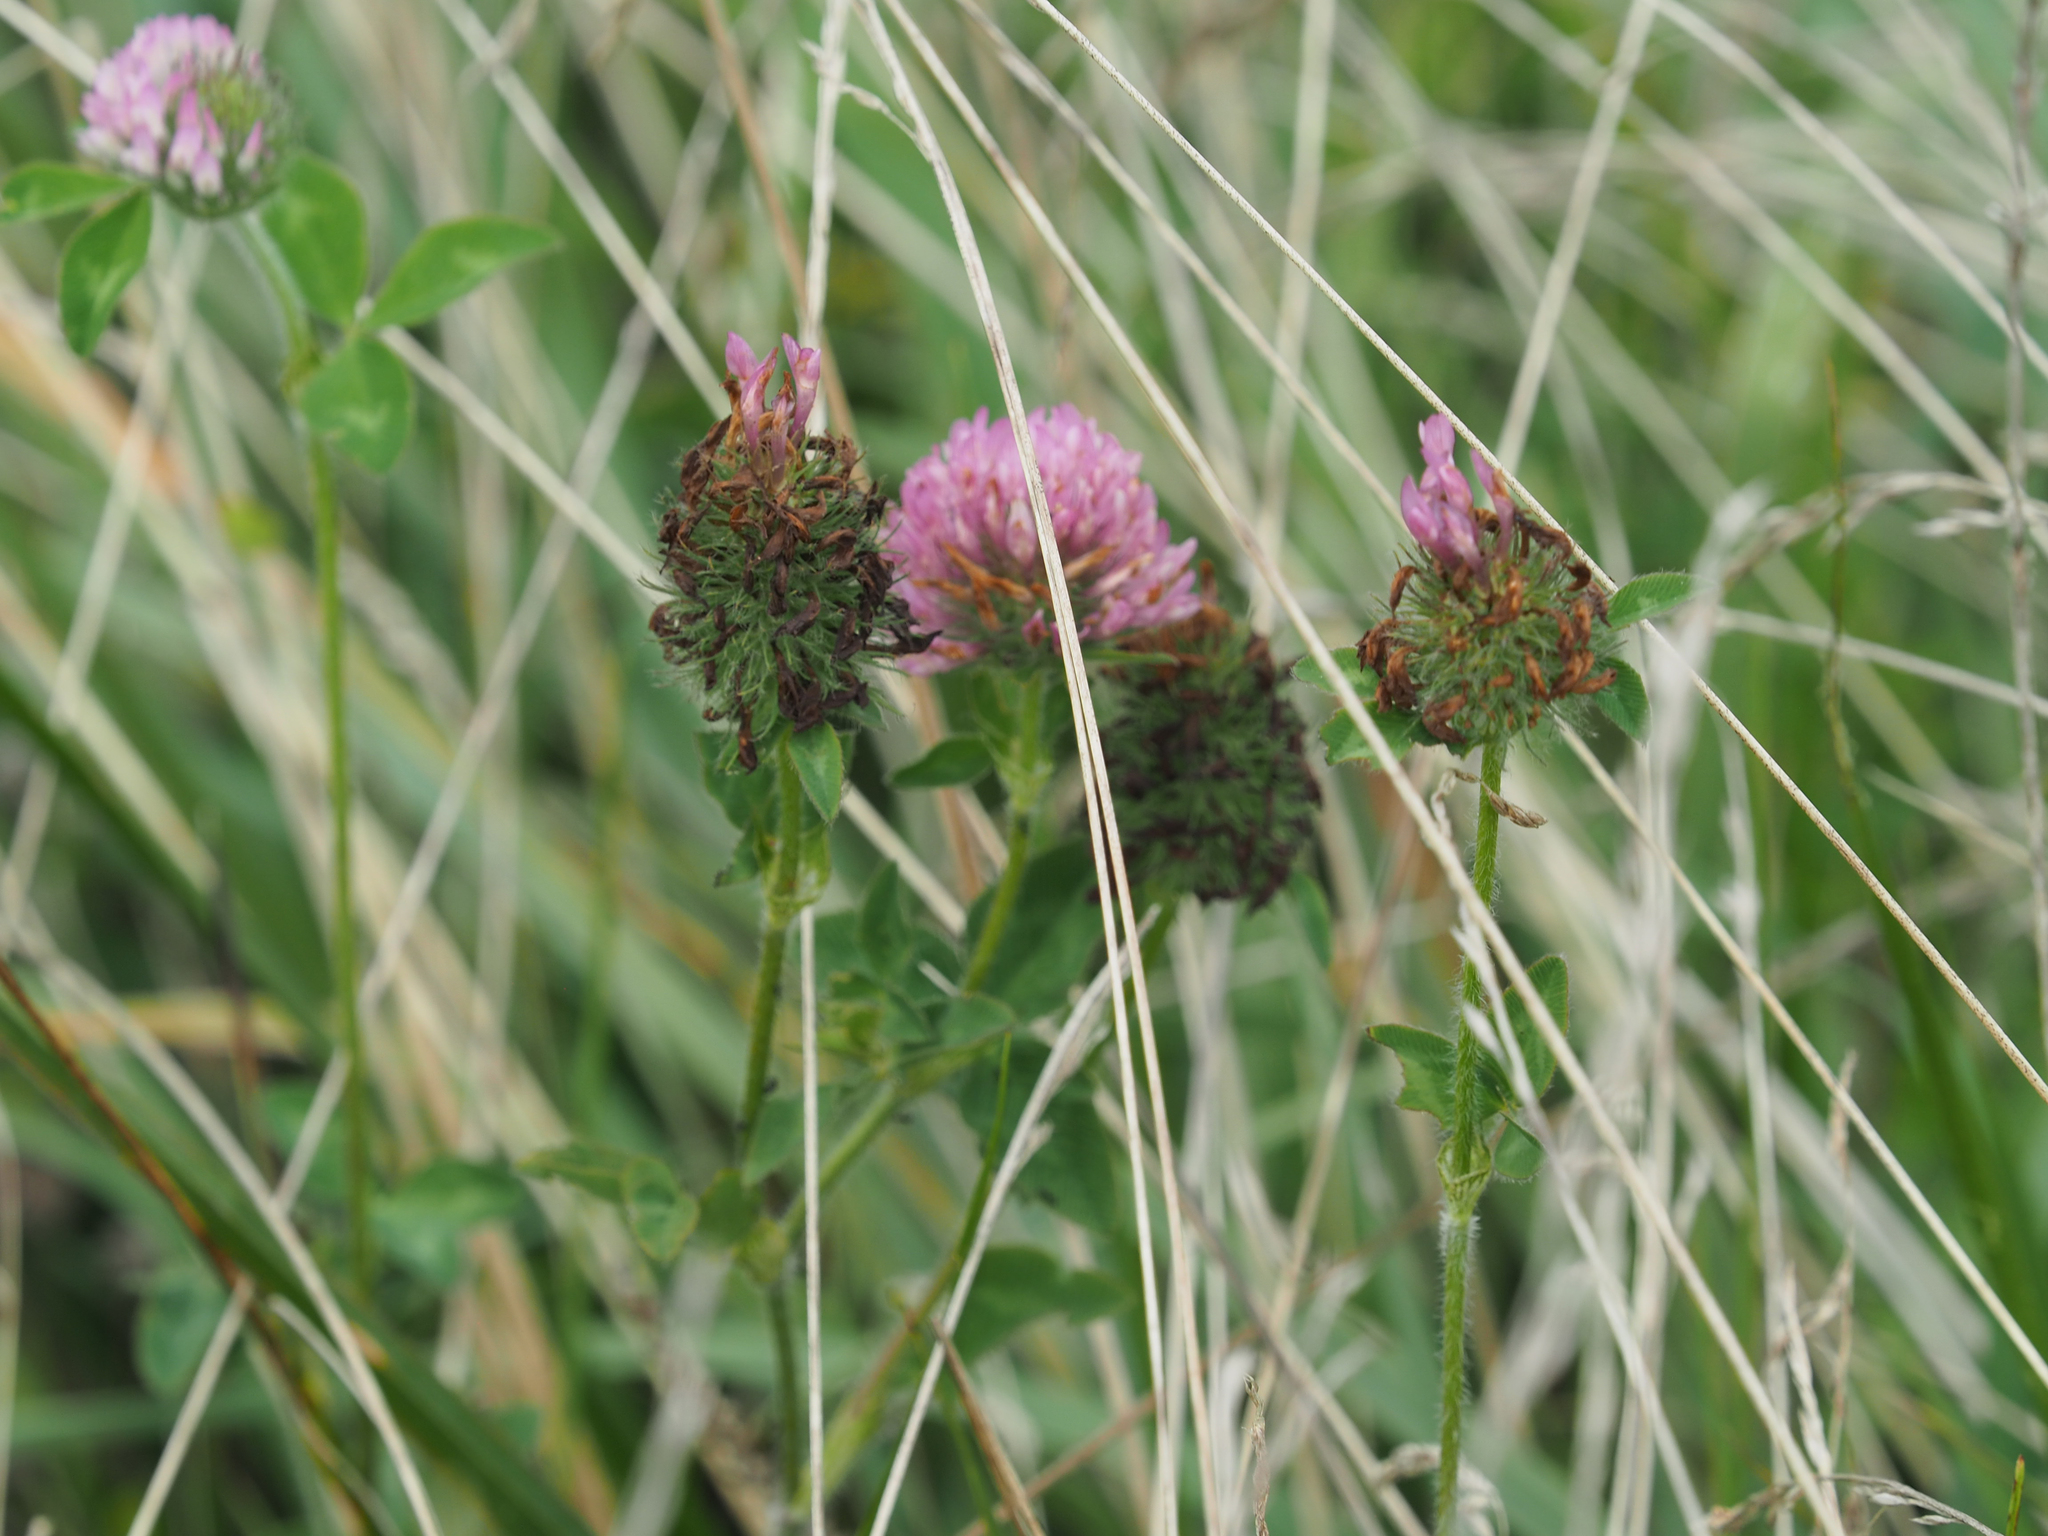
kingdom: Plantae
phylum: Tracheophyta
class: Magnoliopsida
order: Fabales
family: Fabaceae
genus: Trifolium
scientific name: Trifolium pratense
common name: Red clover
